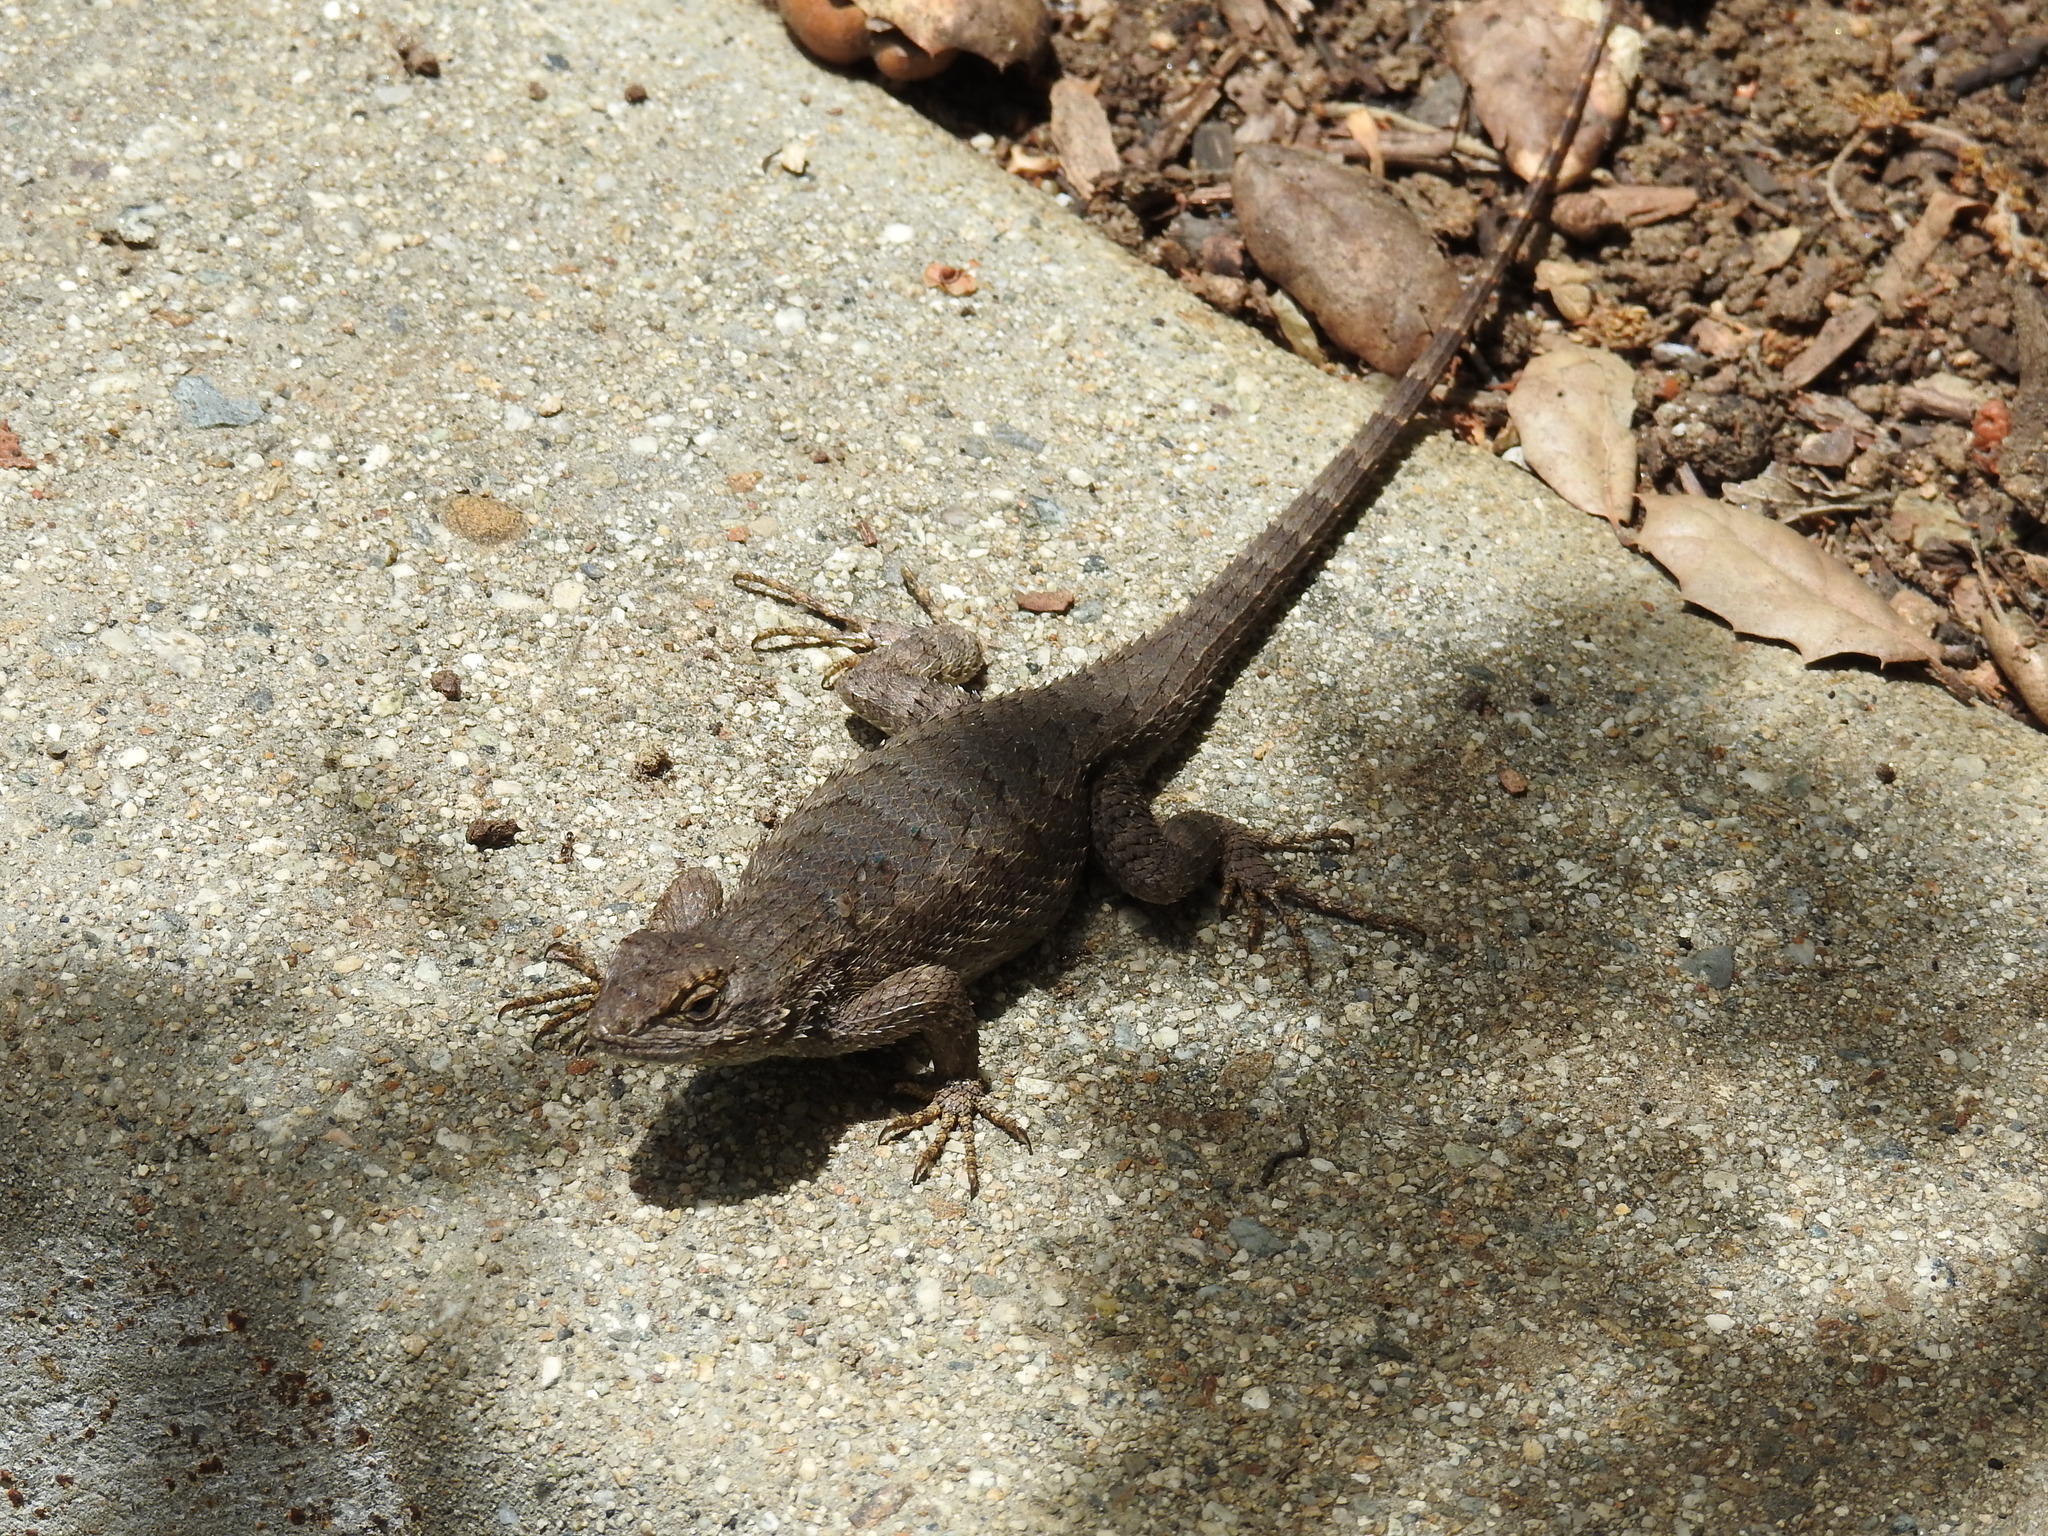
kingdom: Animalia
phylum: Chordata
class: Squamata
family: Phrynosomatidae
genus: Sceloporus
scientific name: Sceloporus occidentalis
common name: Western fence lizard
